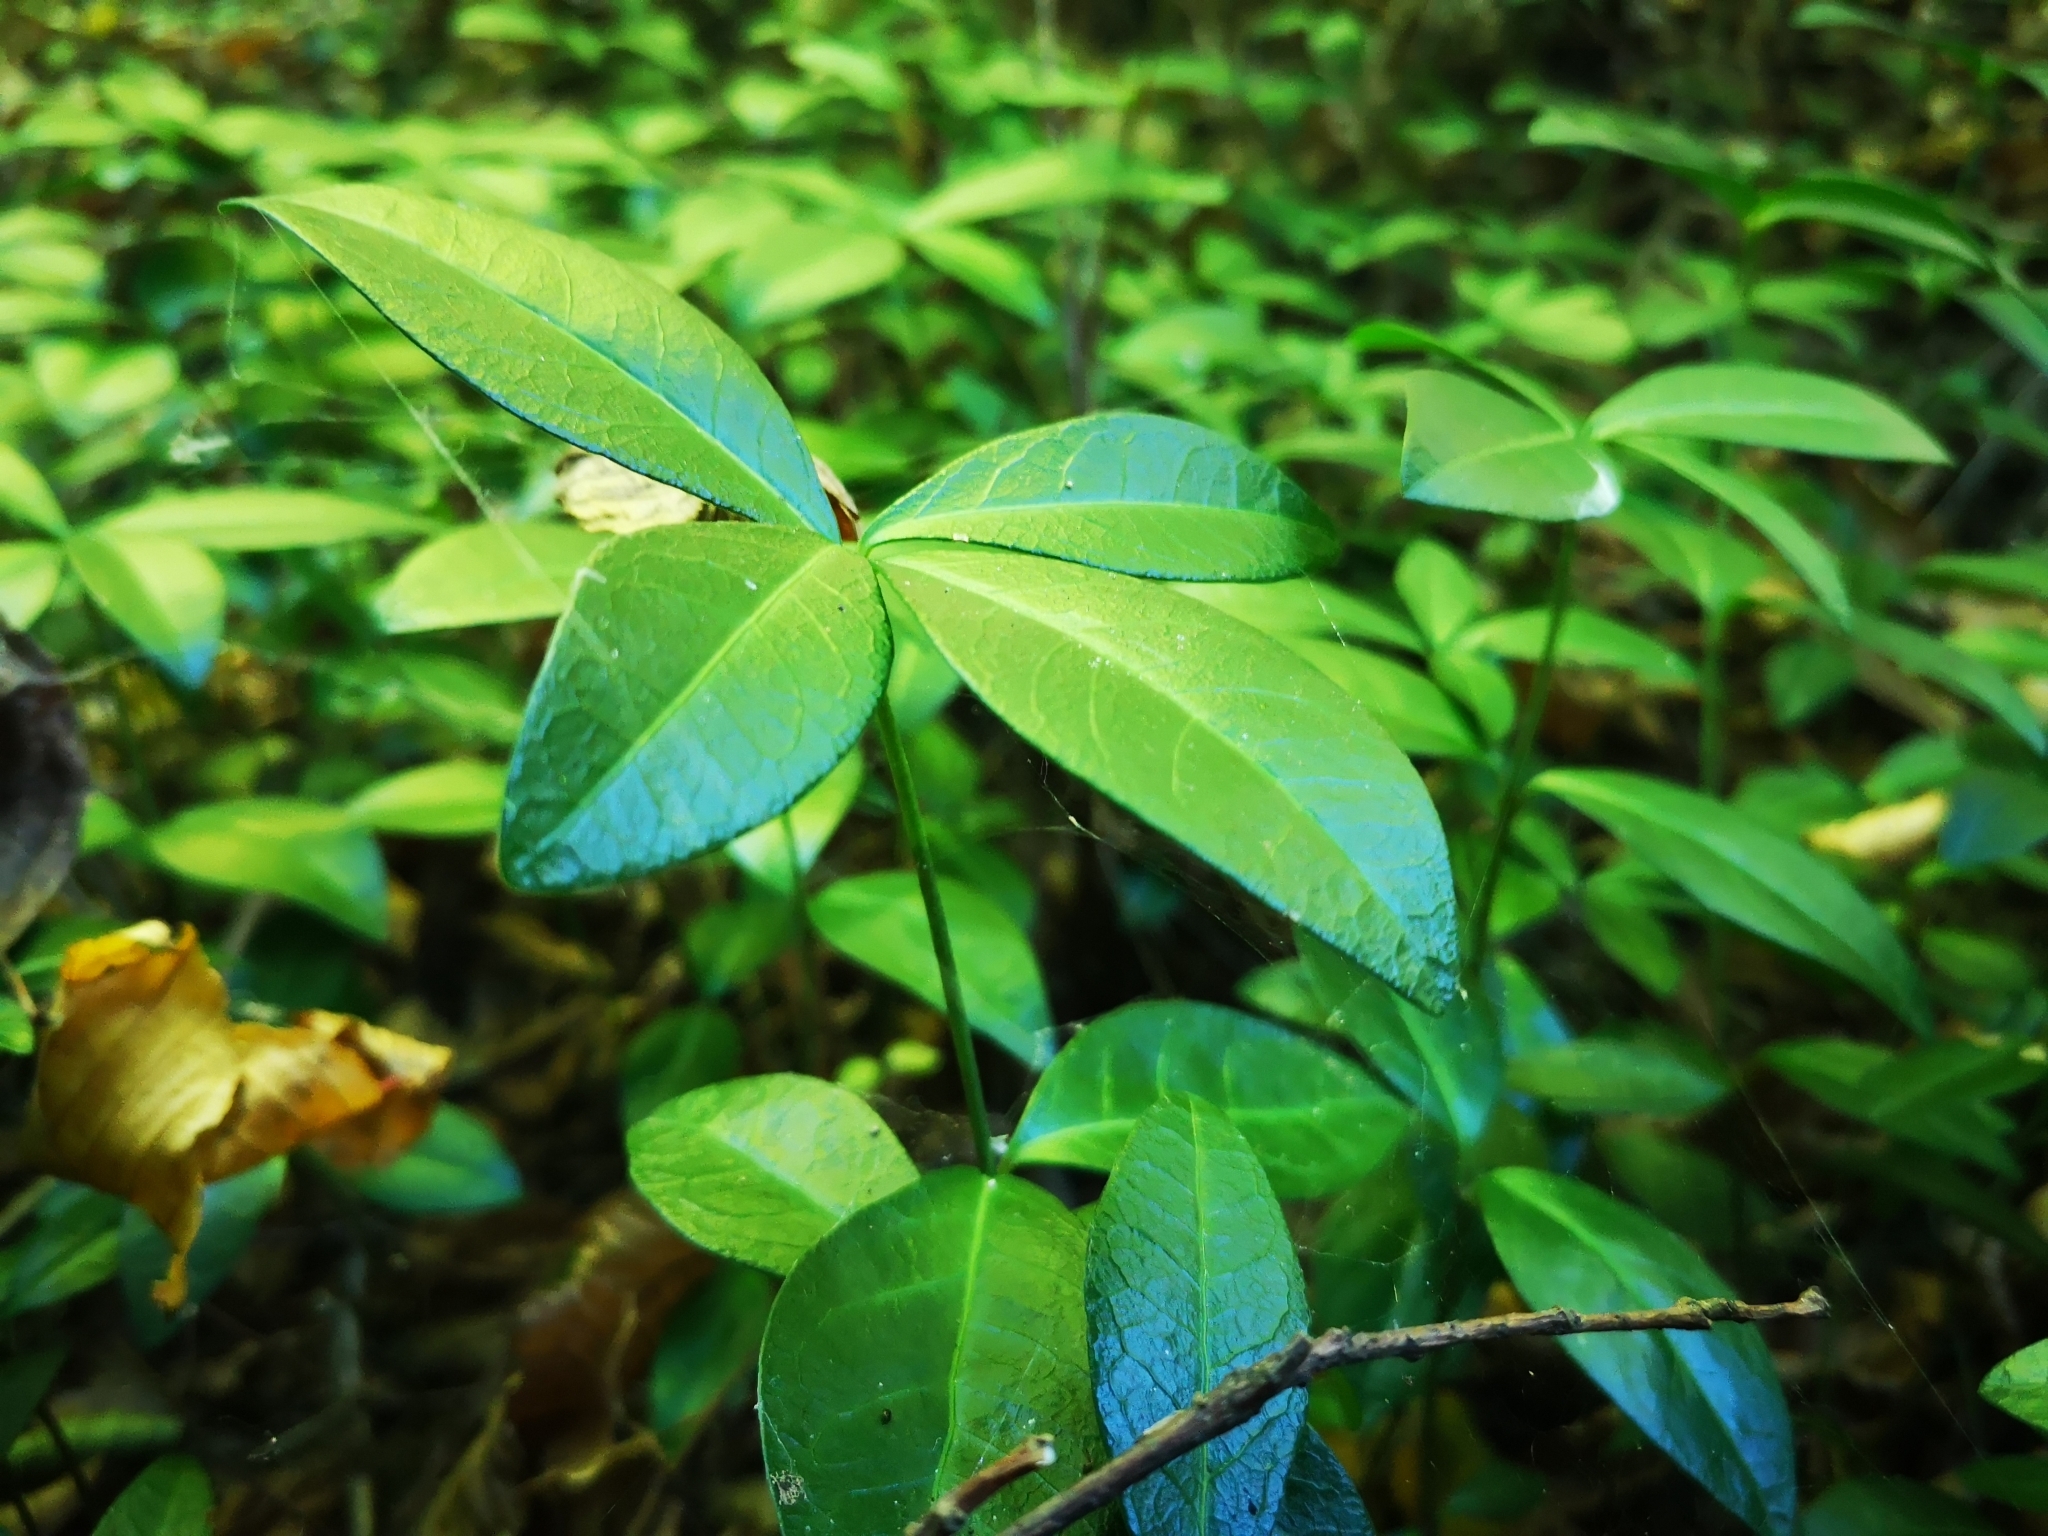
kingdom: Plantae
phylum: Tracheophyta
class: Magnoliopsida
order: Gentianales
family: Apocynaceae
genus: Vinca
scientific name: Vinca minor
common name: Lesser periwinkle
